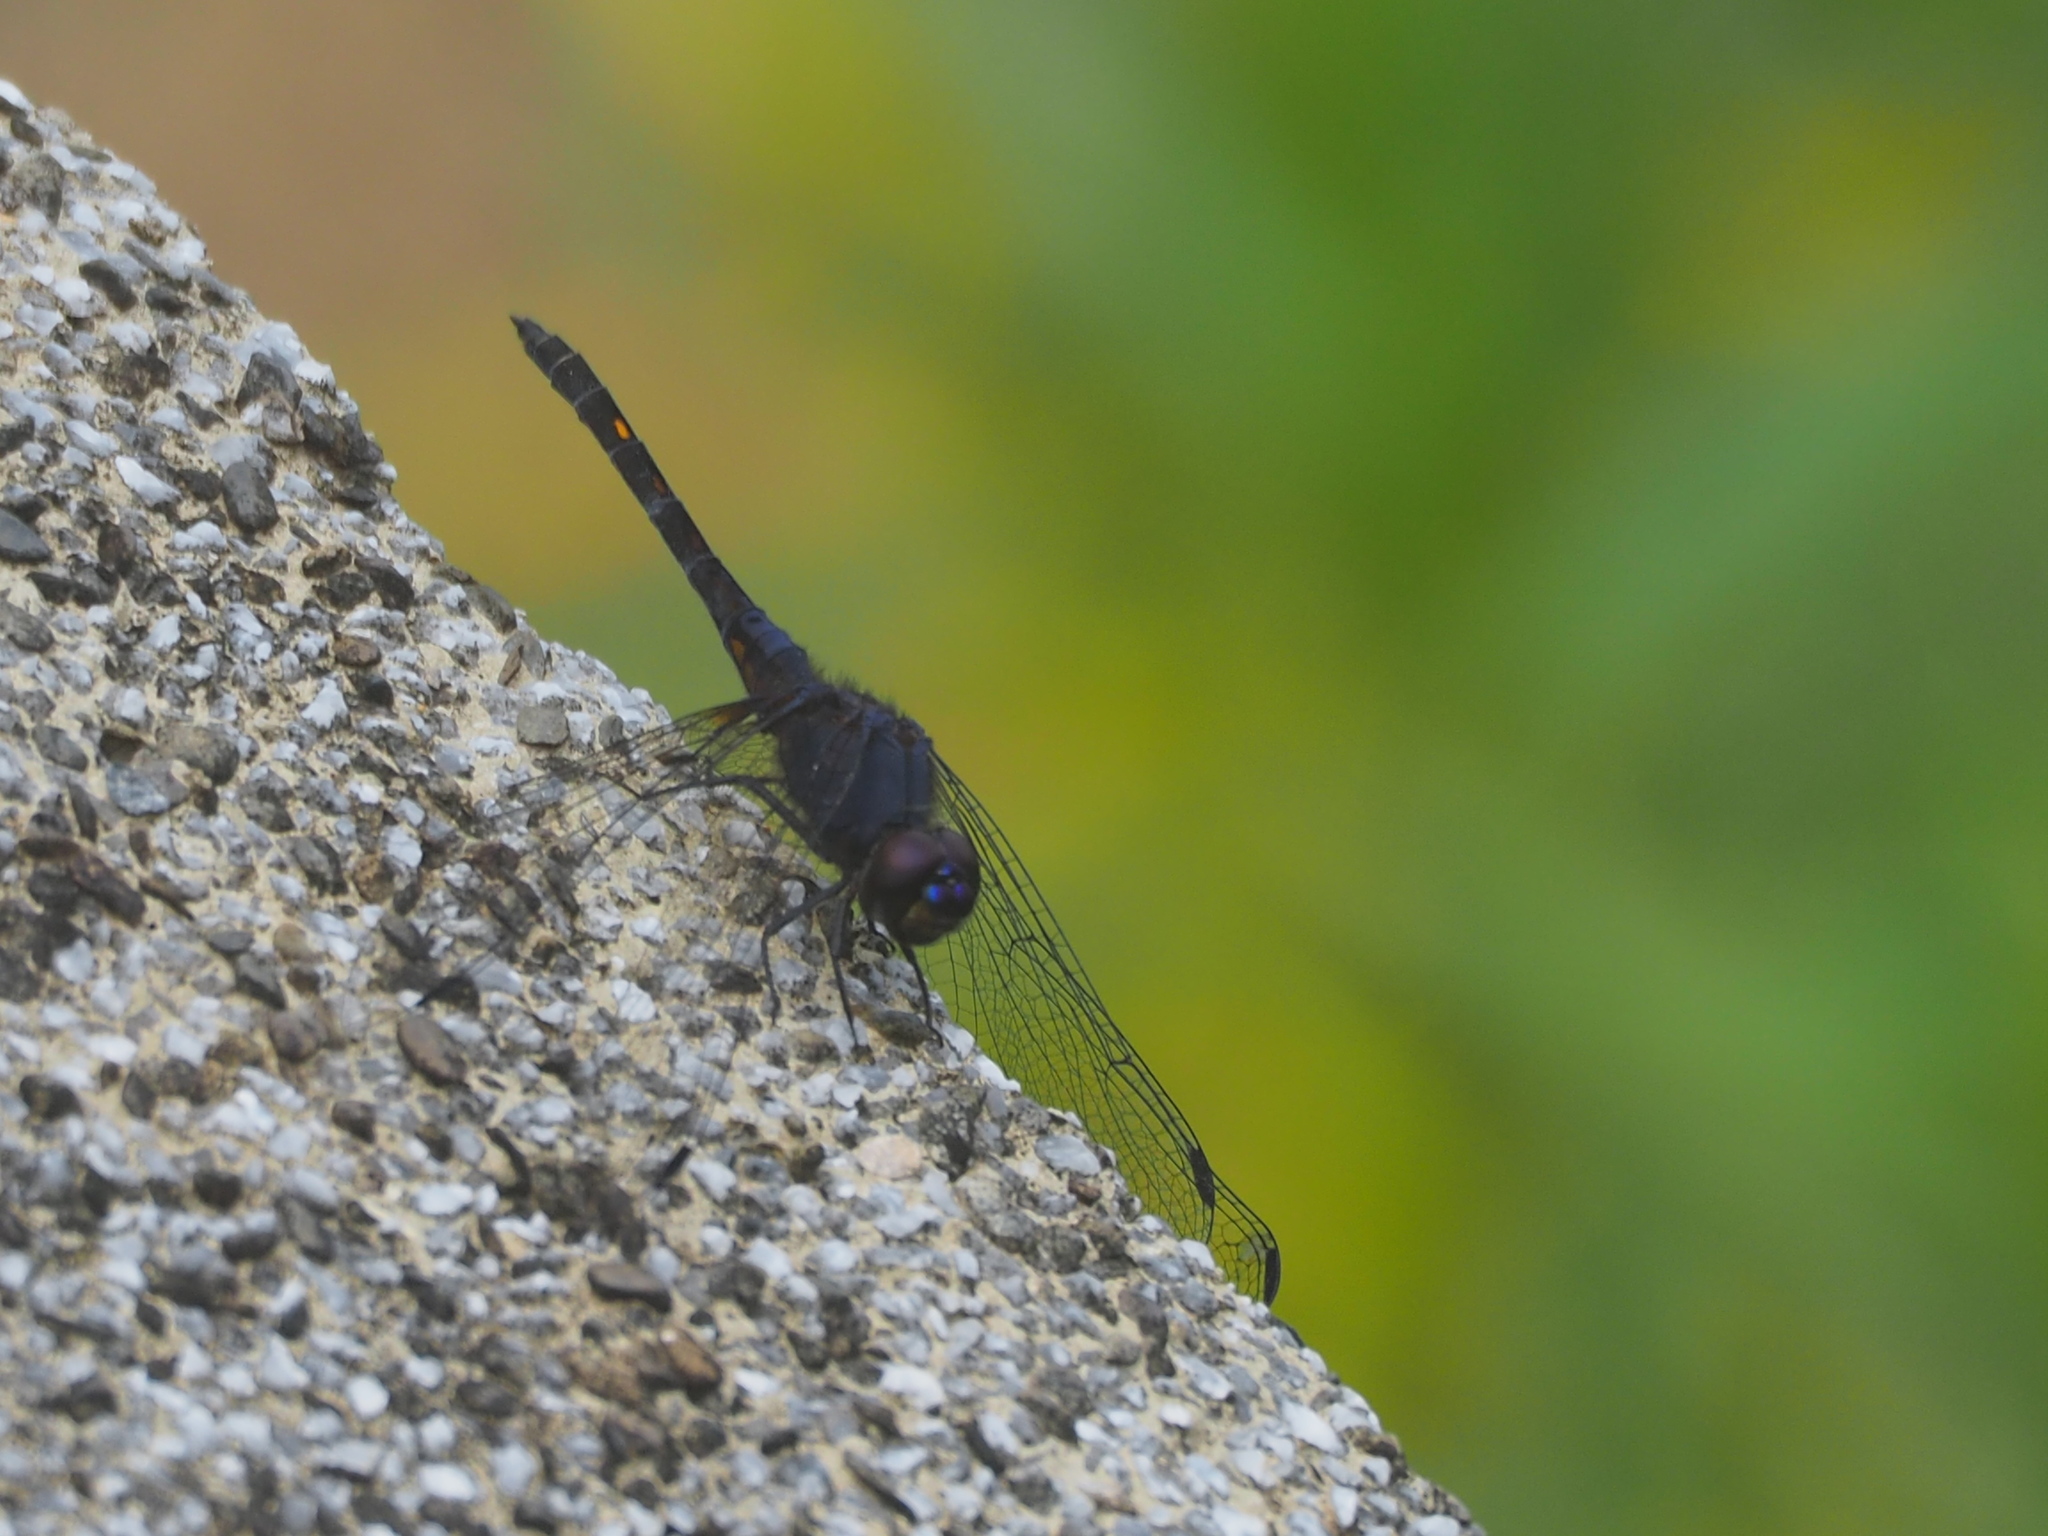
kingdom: Animalia
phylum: Arthropoda
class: Insecta
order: Odonata
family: Libellulidae
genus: Trithemis
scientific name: Trithemis festiva
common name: Indigo dropwing
